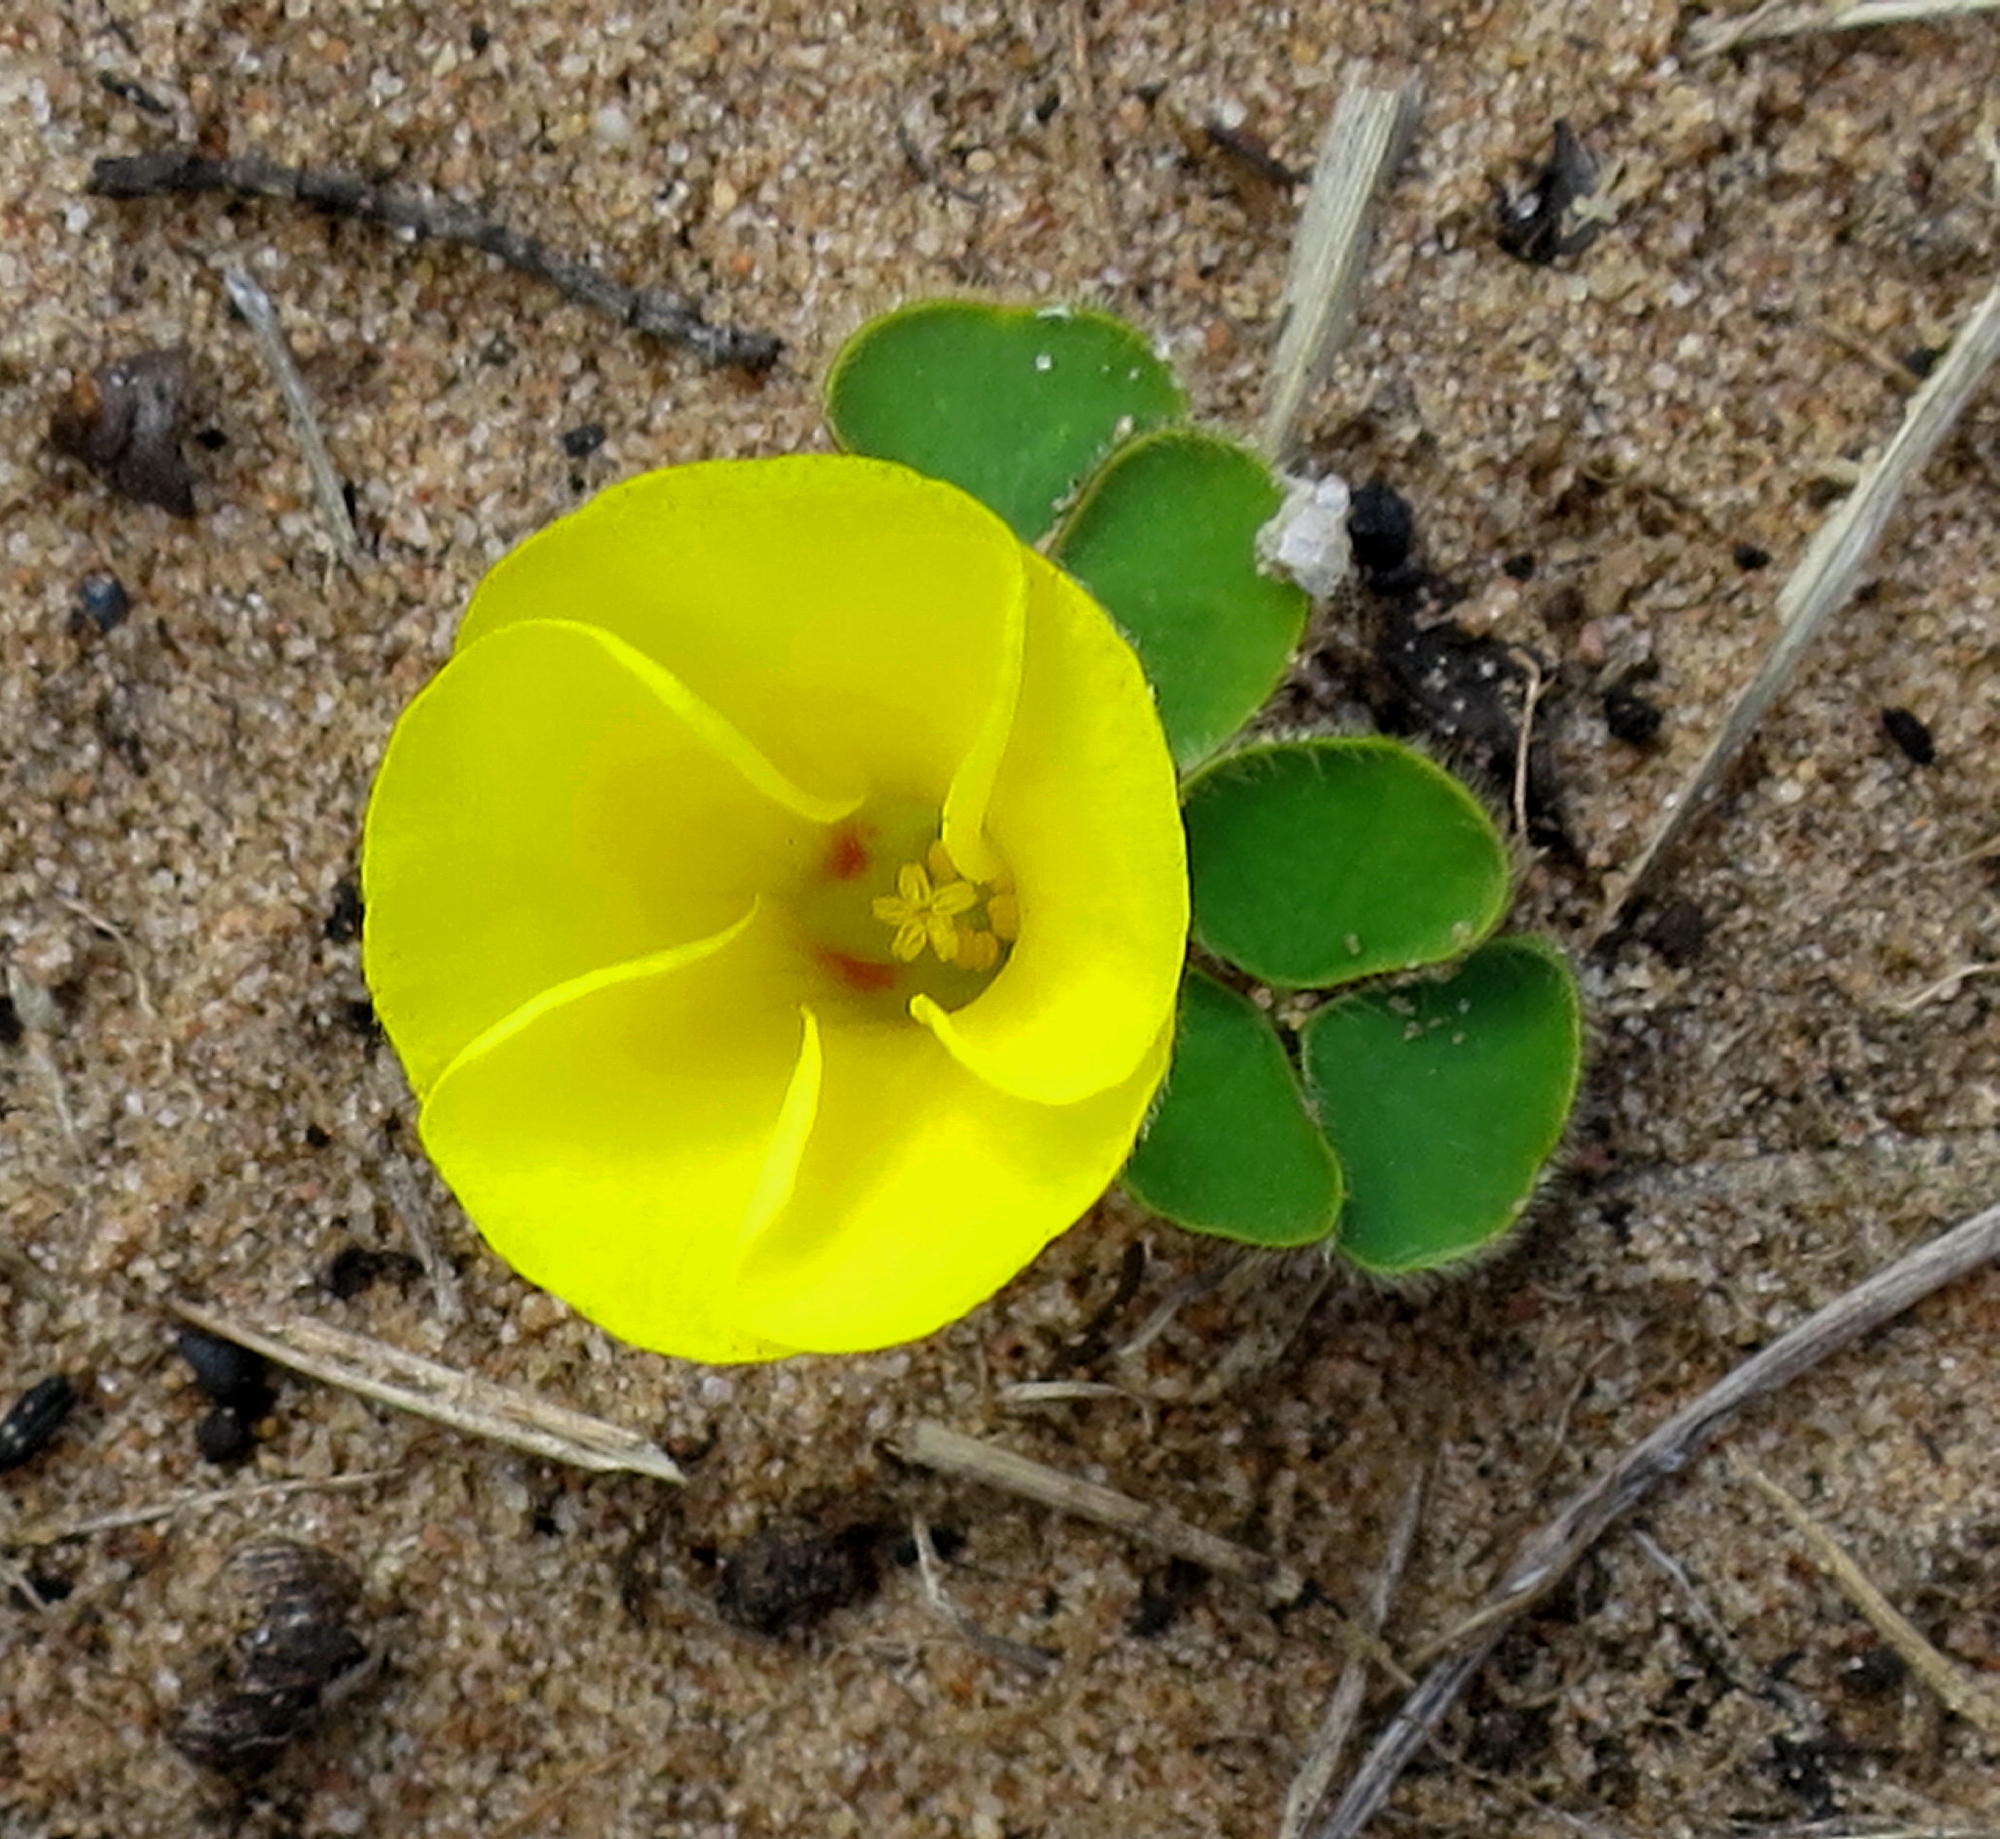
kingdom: Plantae
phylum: Tracheophyta
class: Magnoliopsida
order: Oxalidales
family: Oxalidaceae
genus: Oxalis
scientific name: Oxalis luteola
